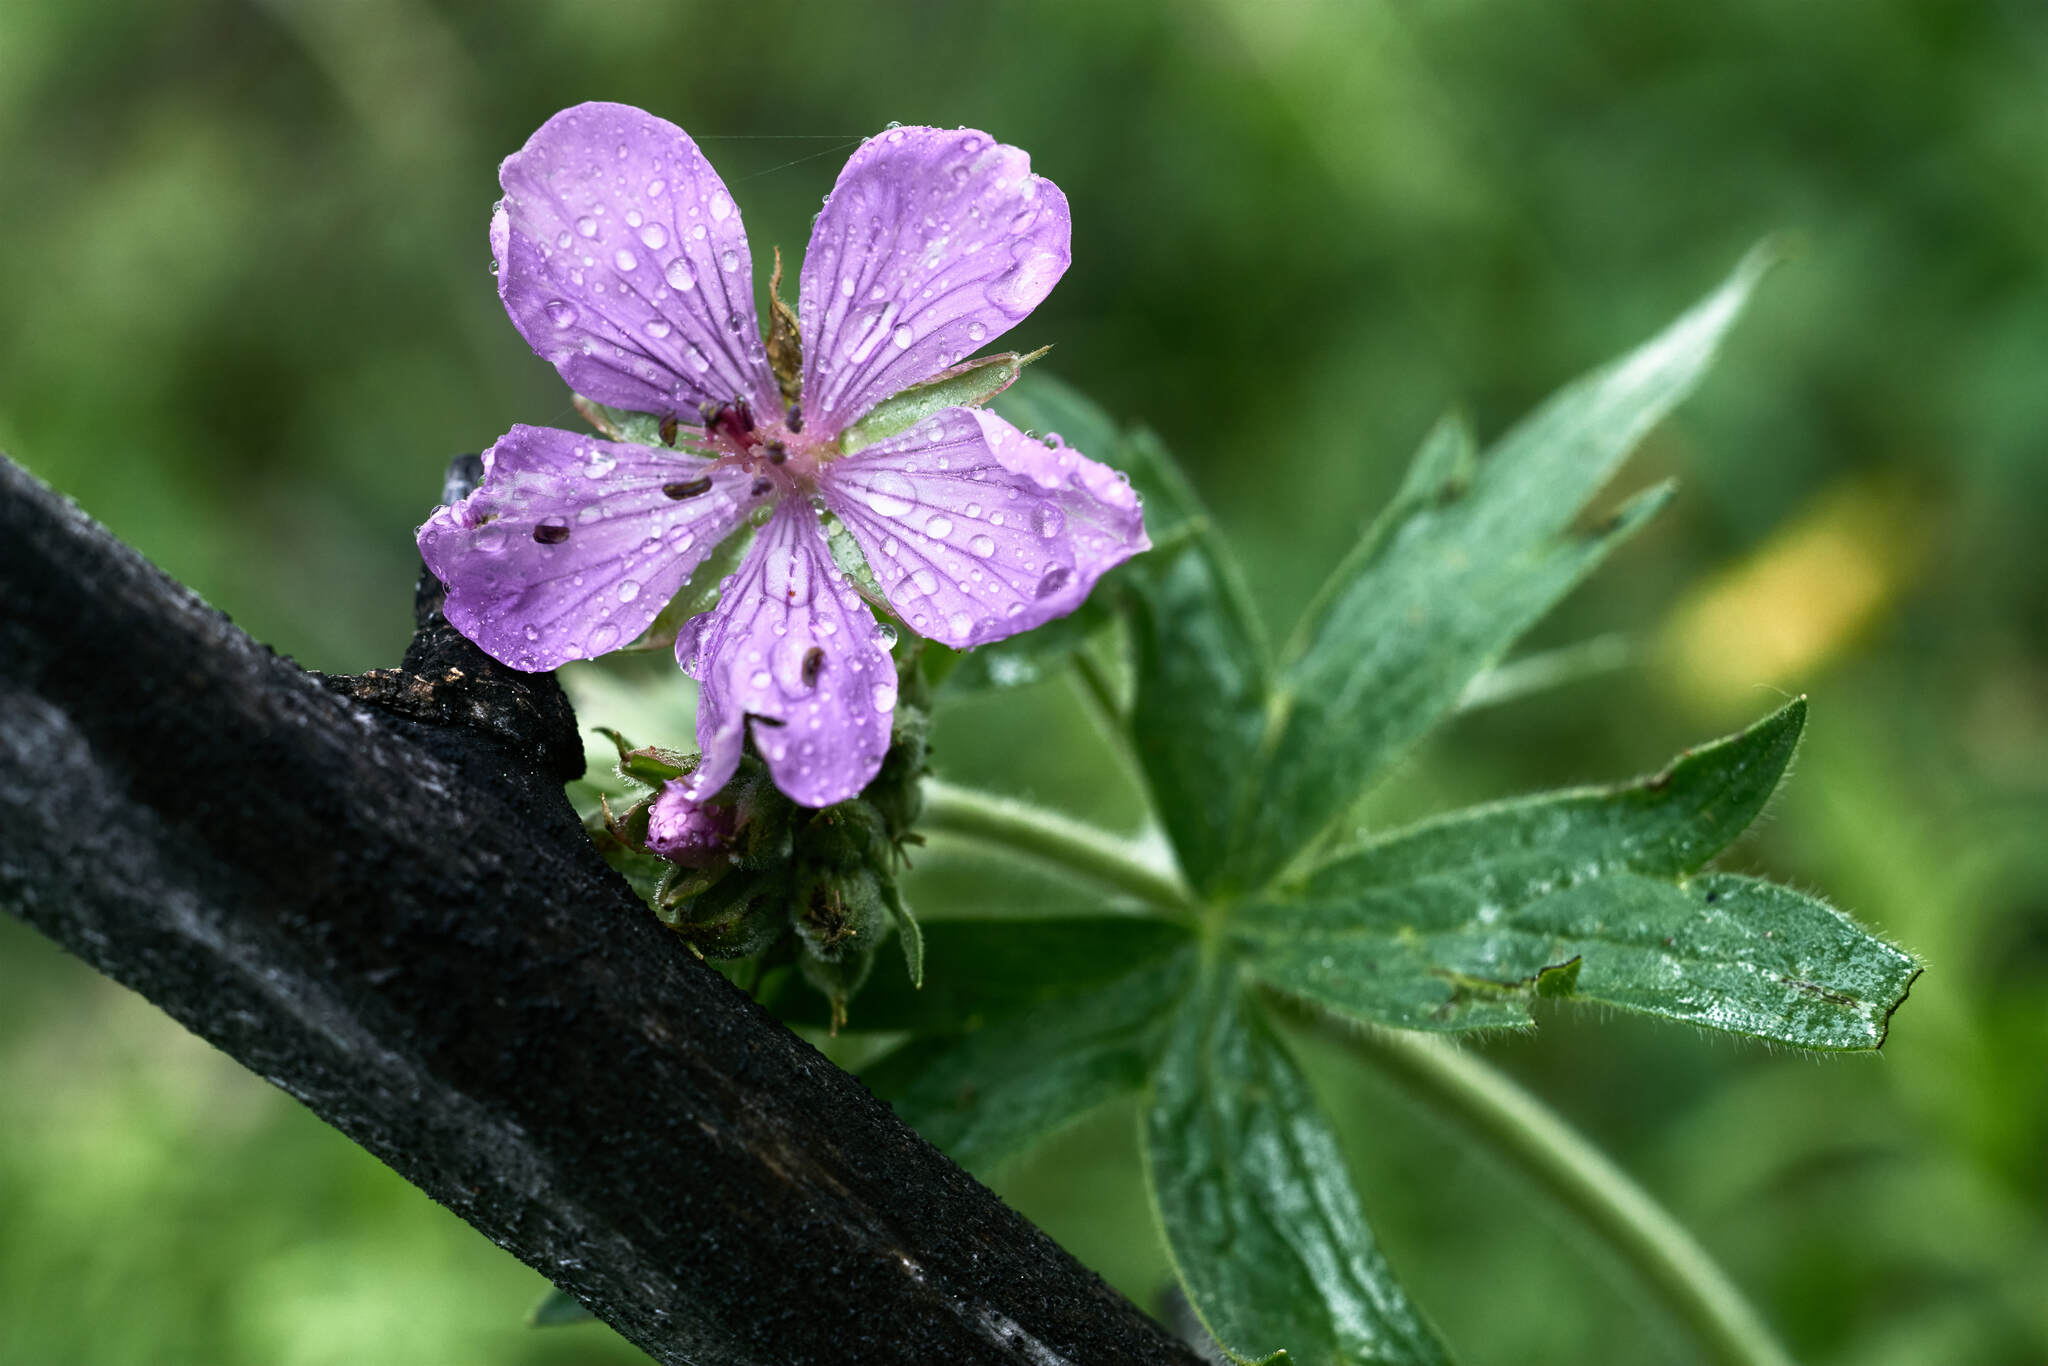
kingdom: Plantae
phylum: Tracheophyta
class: Magnoliopsida
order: Geraniales
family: Geraniaceae
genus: Geranium
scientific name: Geranium viscosissimum
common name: Purple geranium
